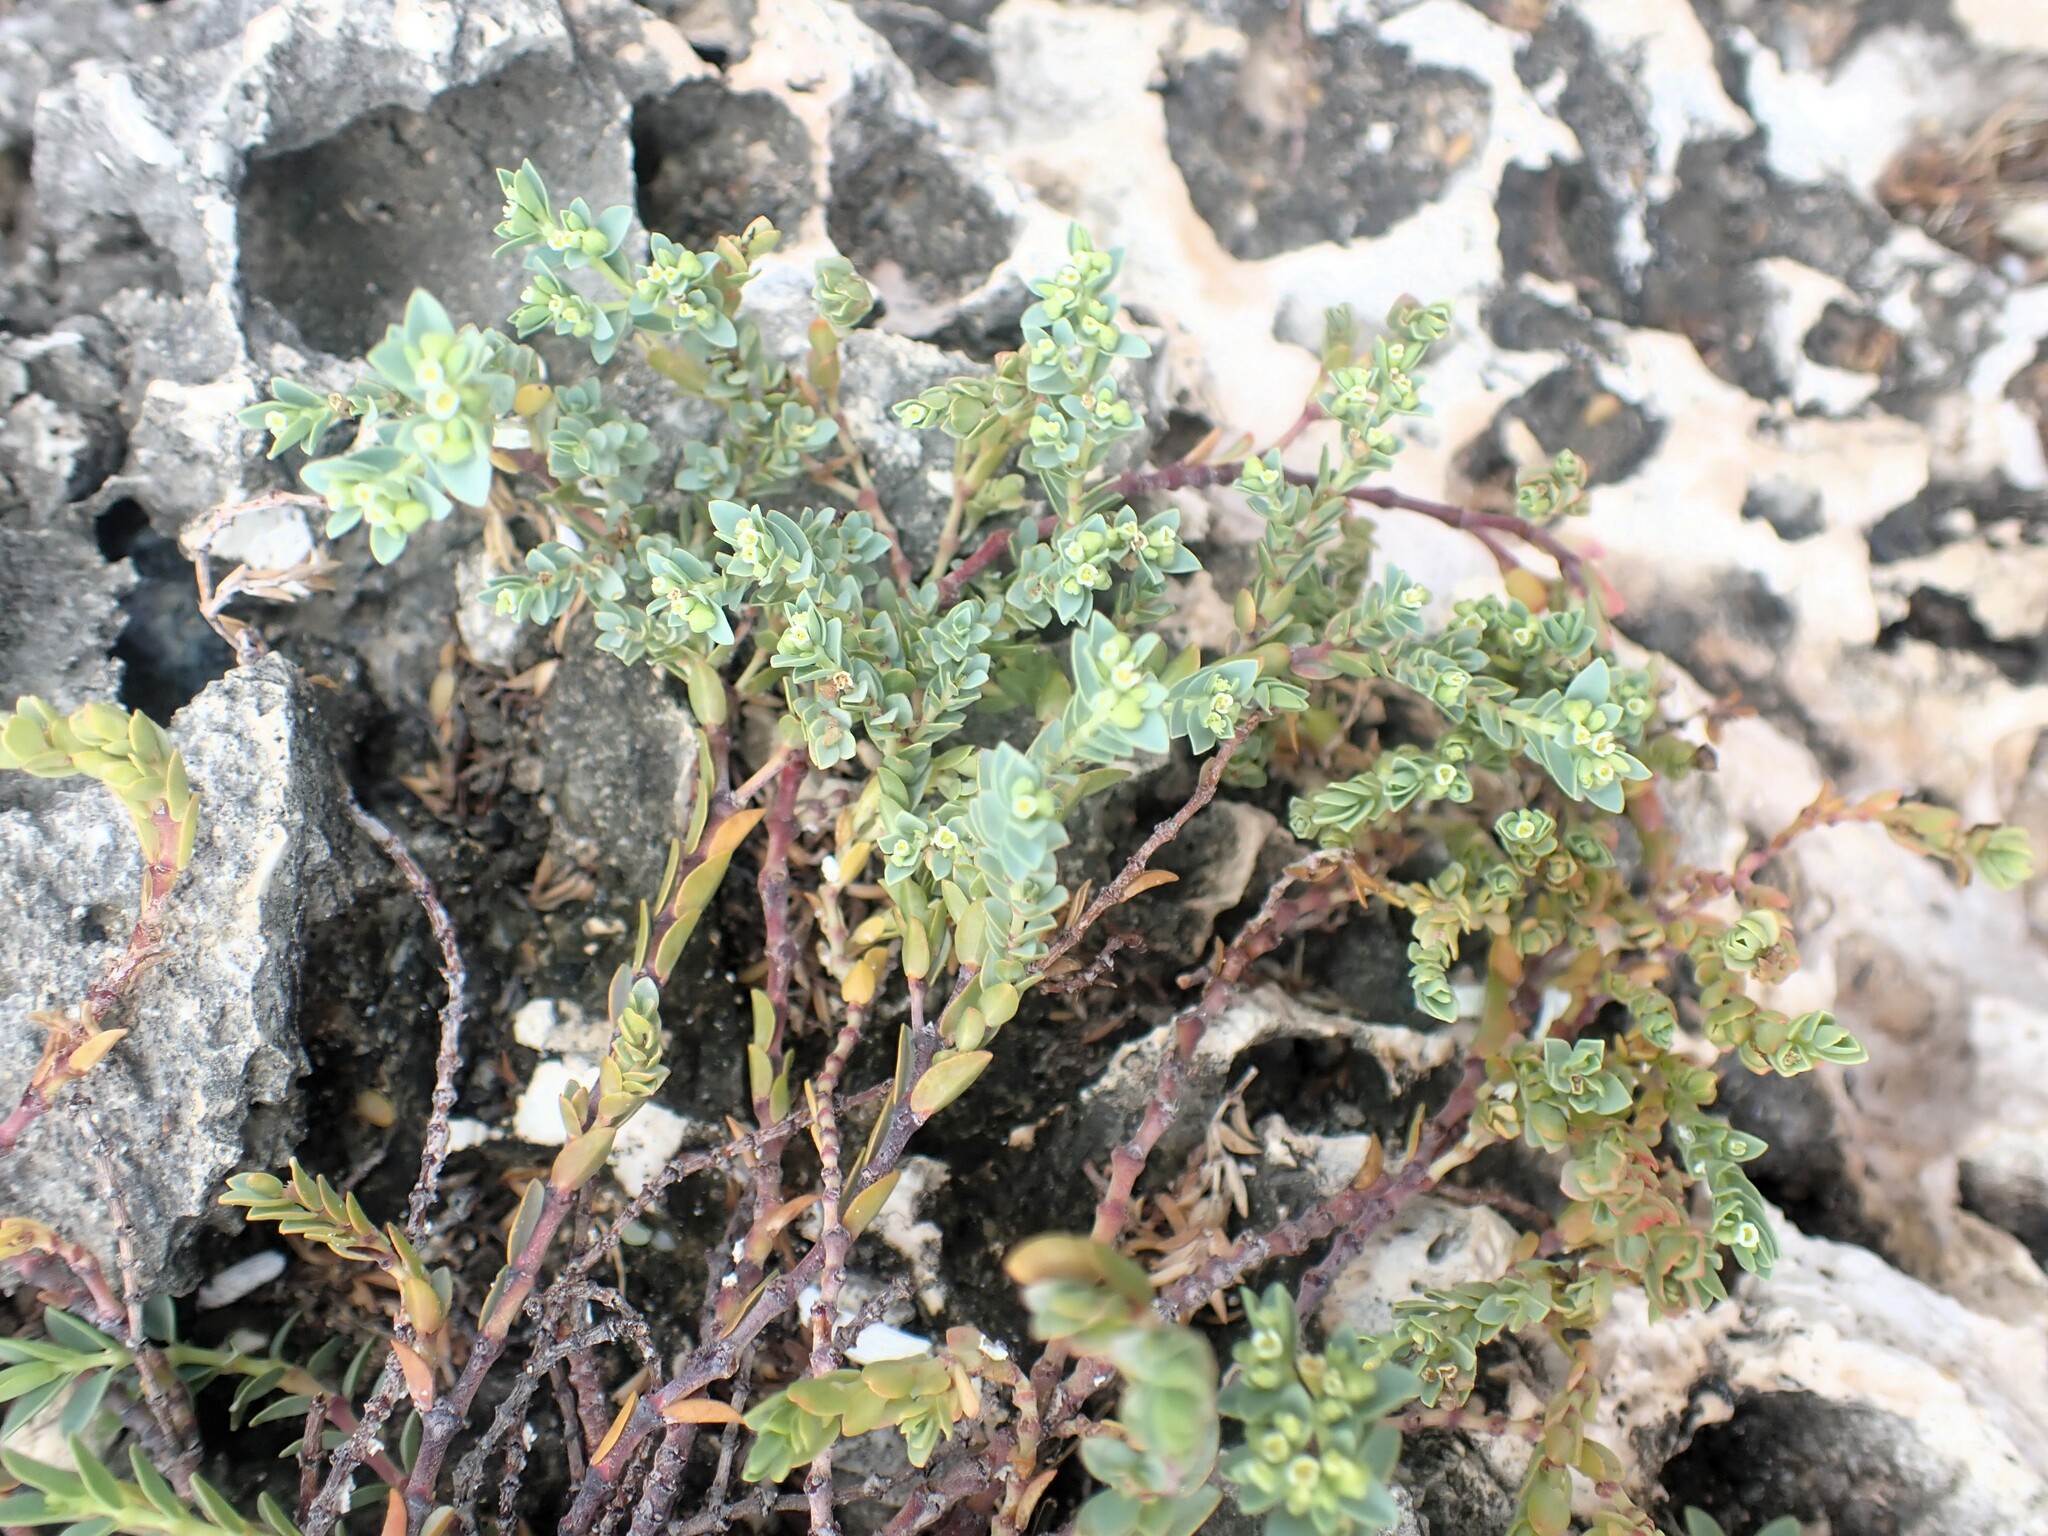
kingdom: Plantae
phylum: Tracheophyta
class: Magnoliopsida
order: Malpighiales
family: Euphorbiaceae
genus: Euphorbia
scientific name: Euphorbia mesembryanthemifolia
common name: Coastal beach sandmat
